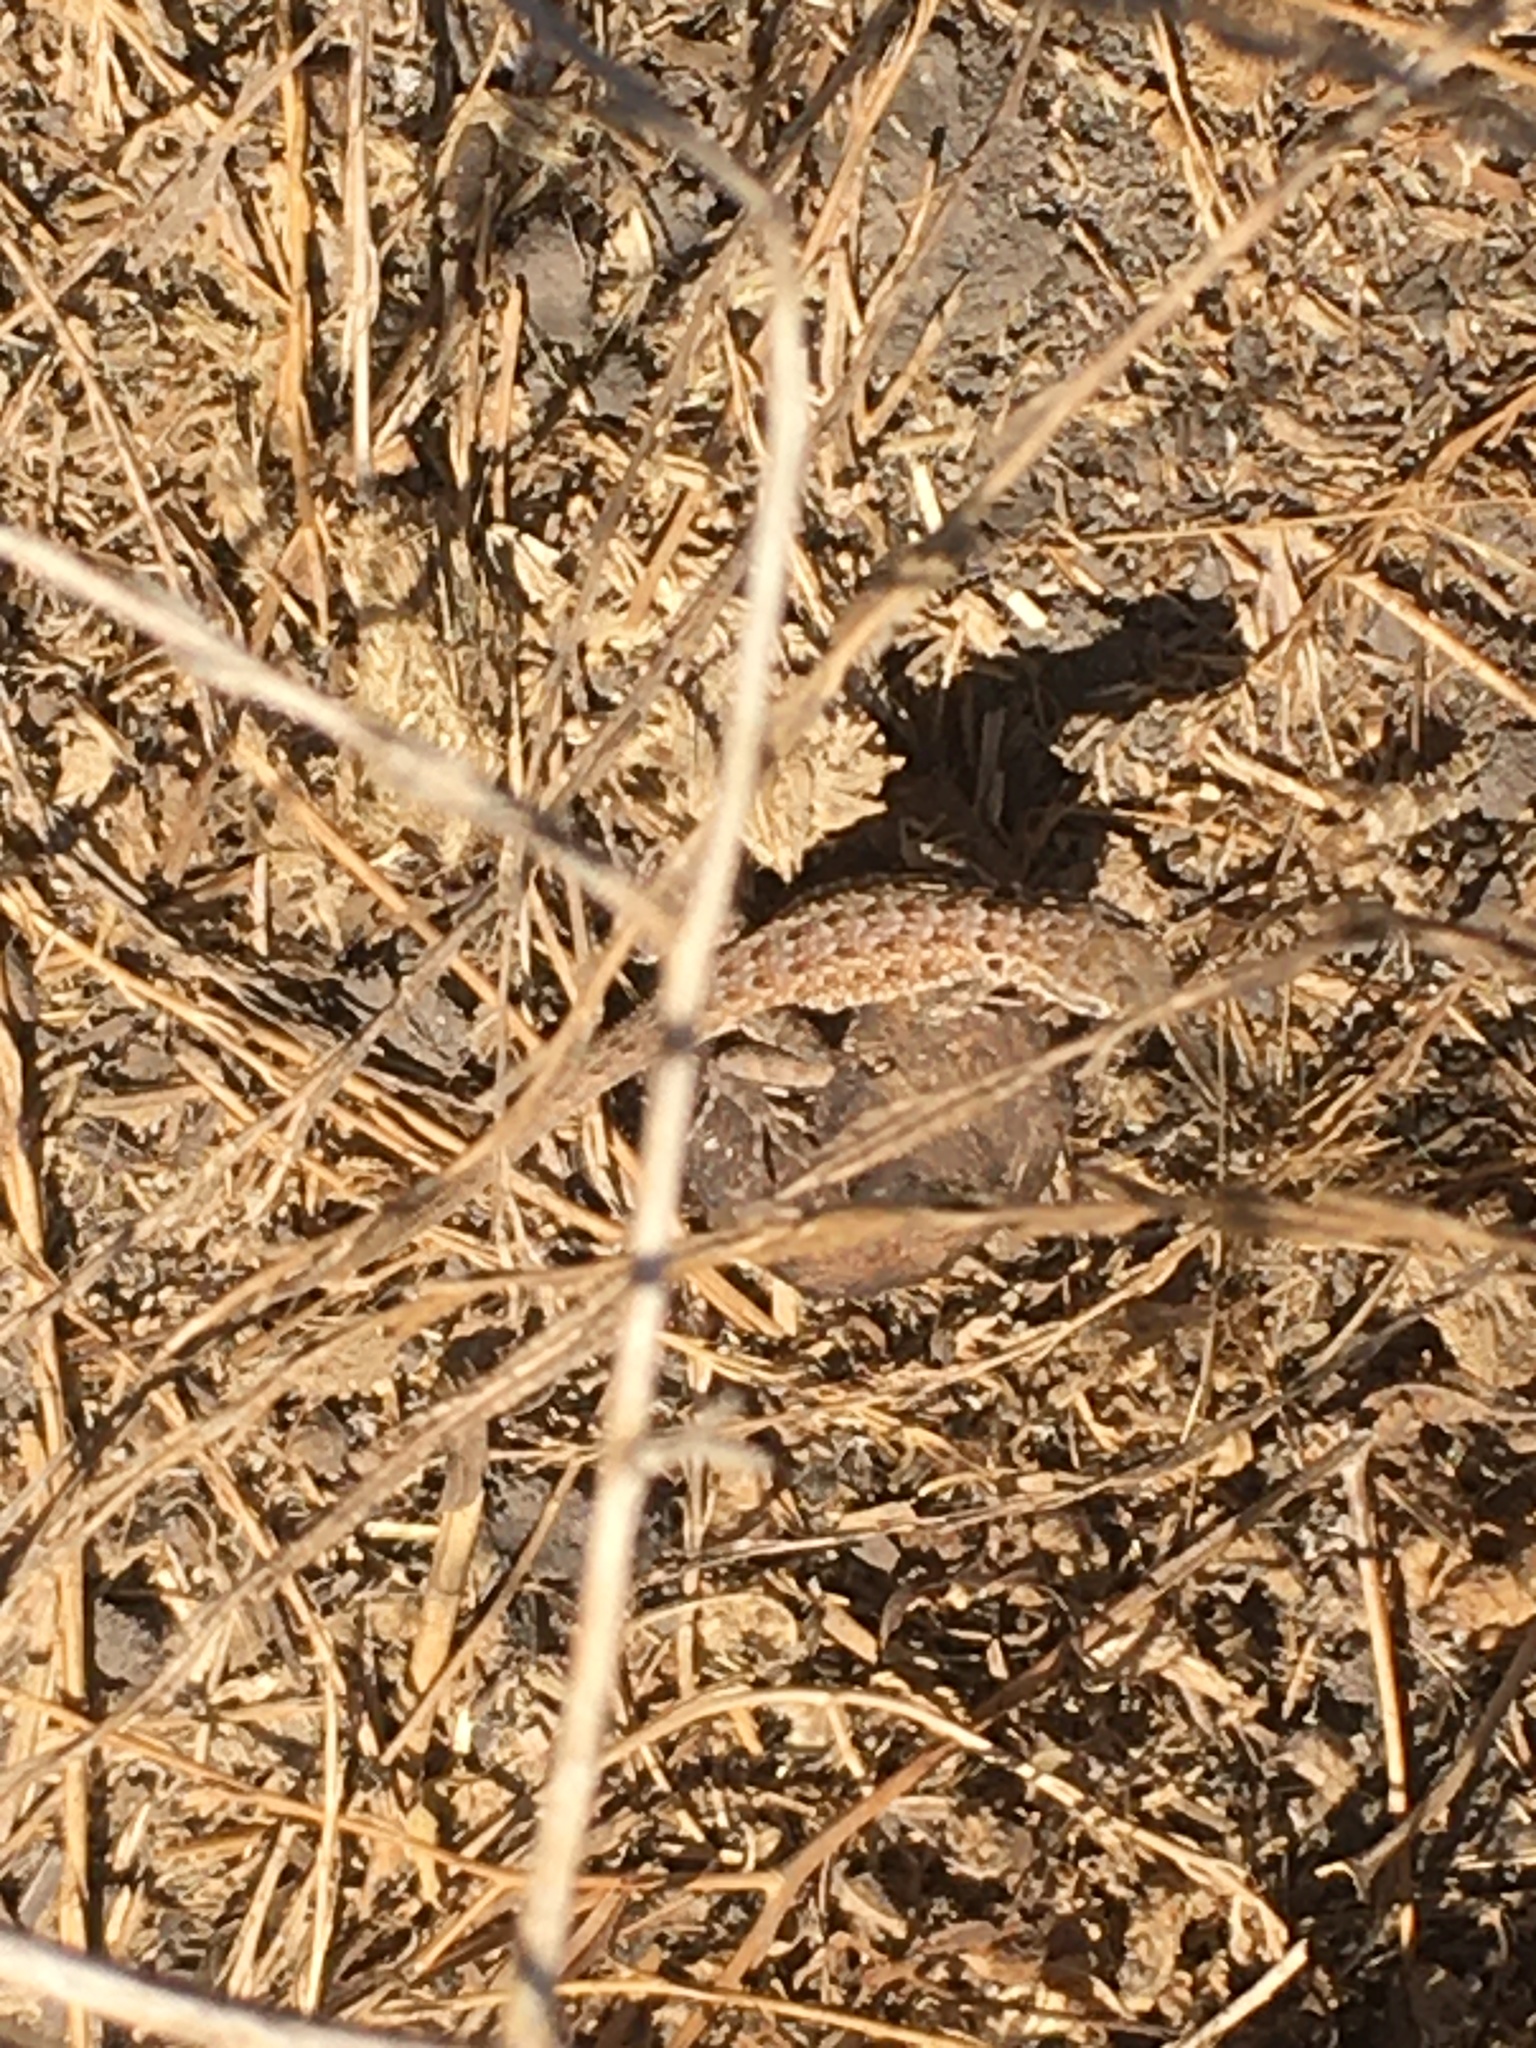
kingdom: Animalia
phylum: Chordata
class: Squamata
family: Phrynosomatidae
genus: Uta
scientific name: Uta stansburiana
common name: Side-blotched lizard
